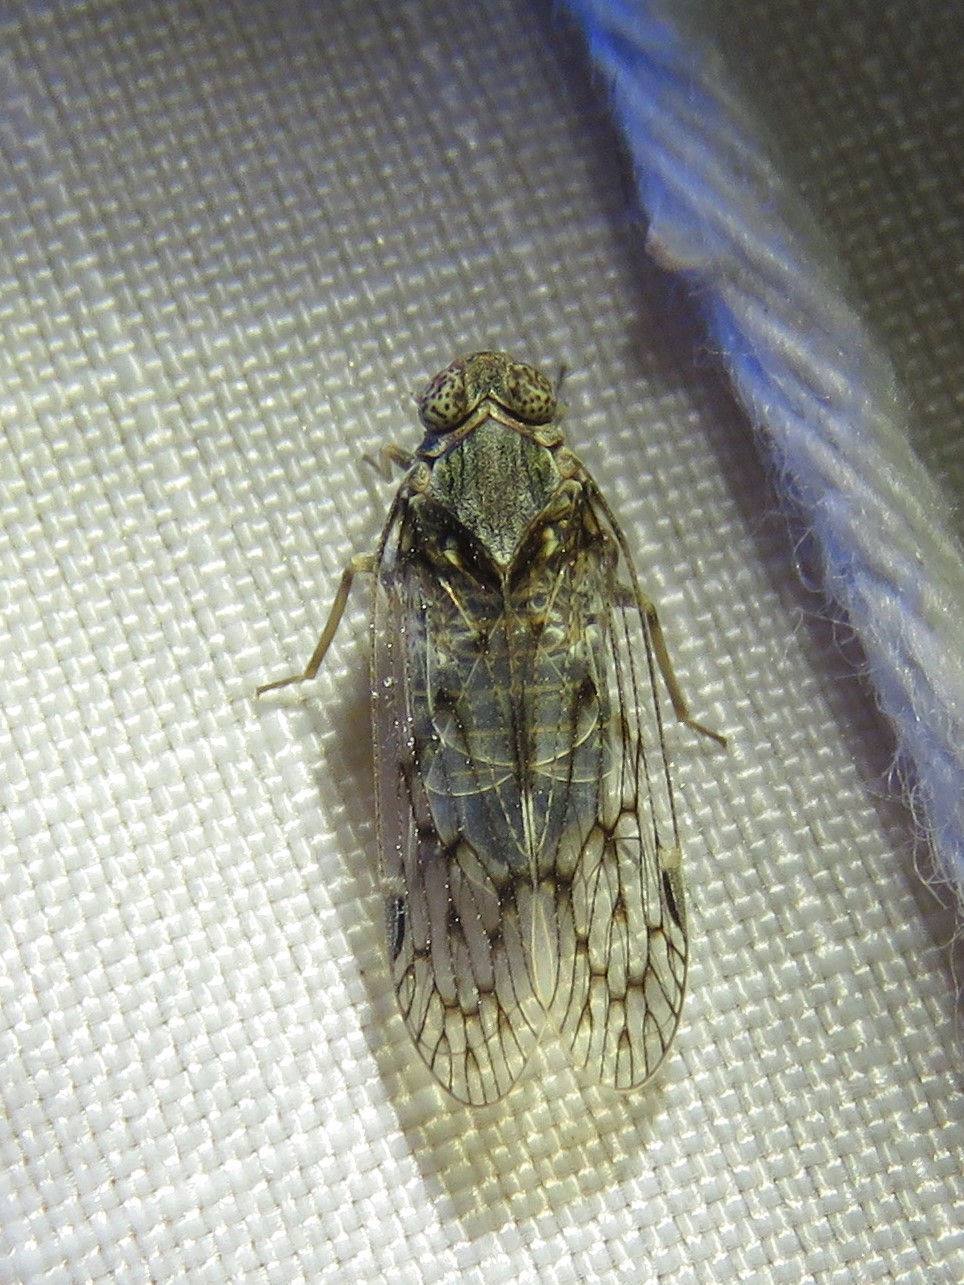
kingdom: Animalia
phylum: Arthropoda
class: Insecta
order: Hemiptera
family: Cixiidae
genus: Melanoliarus
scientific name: Melanoliarus aridus
